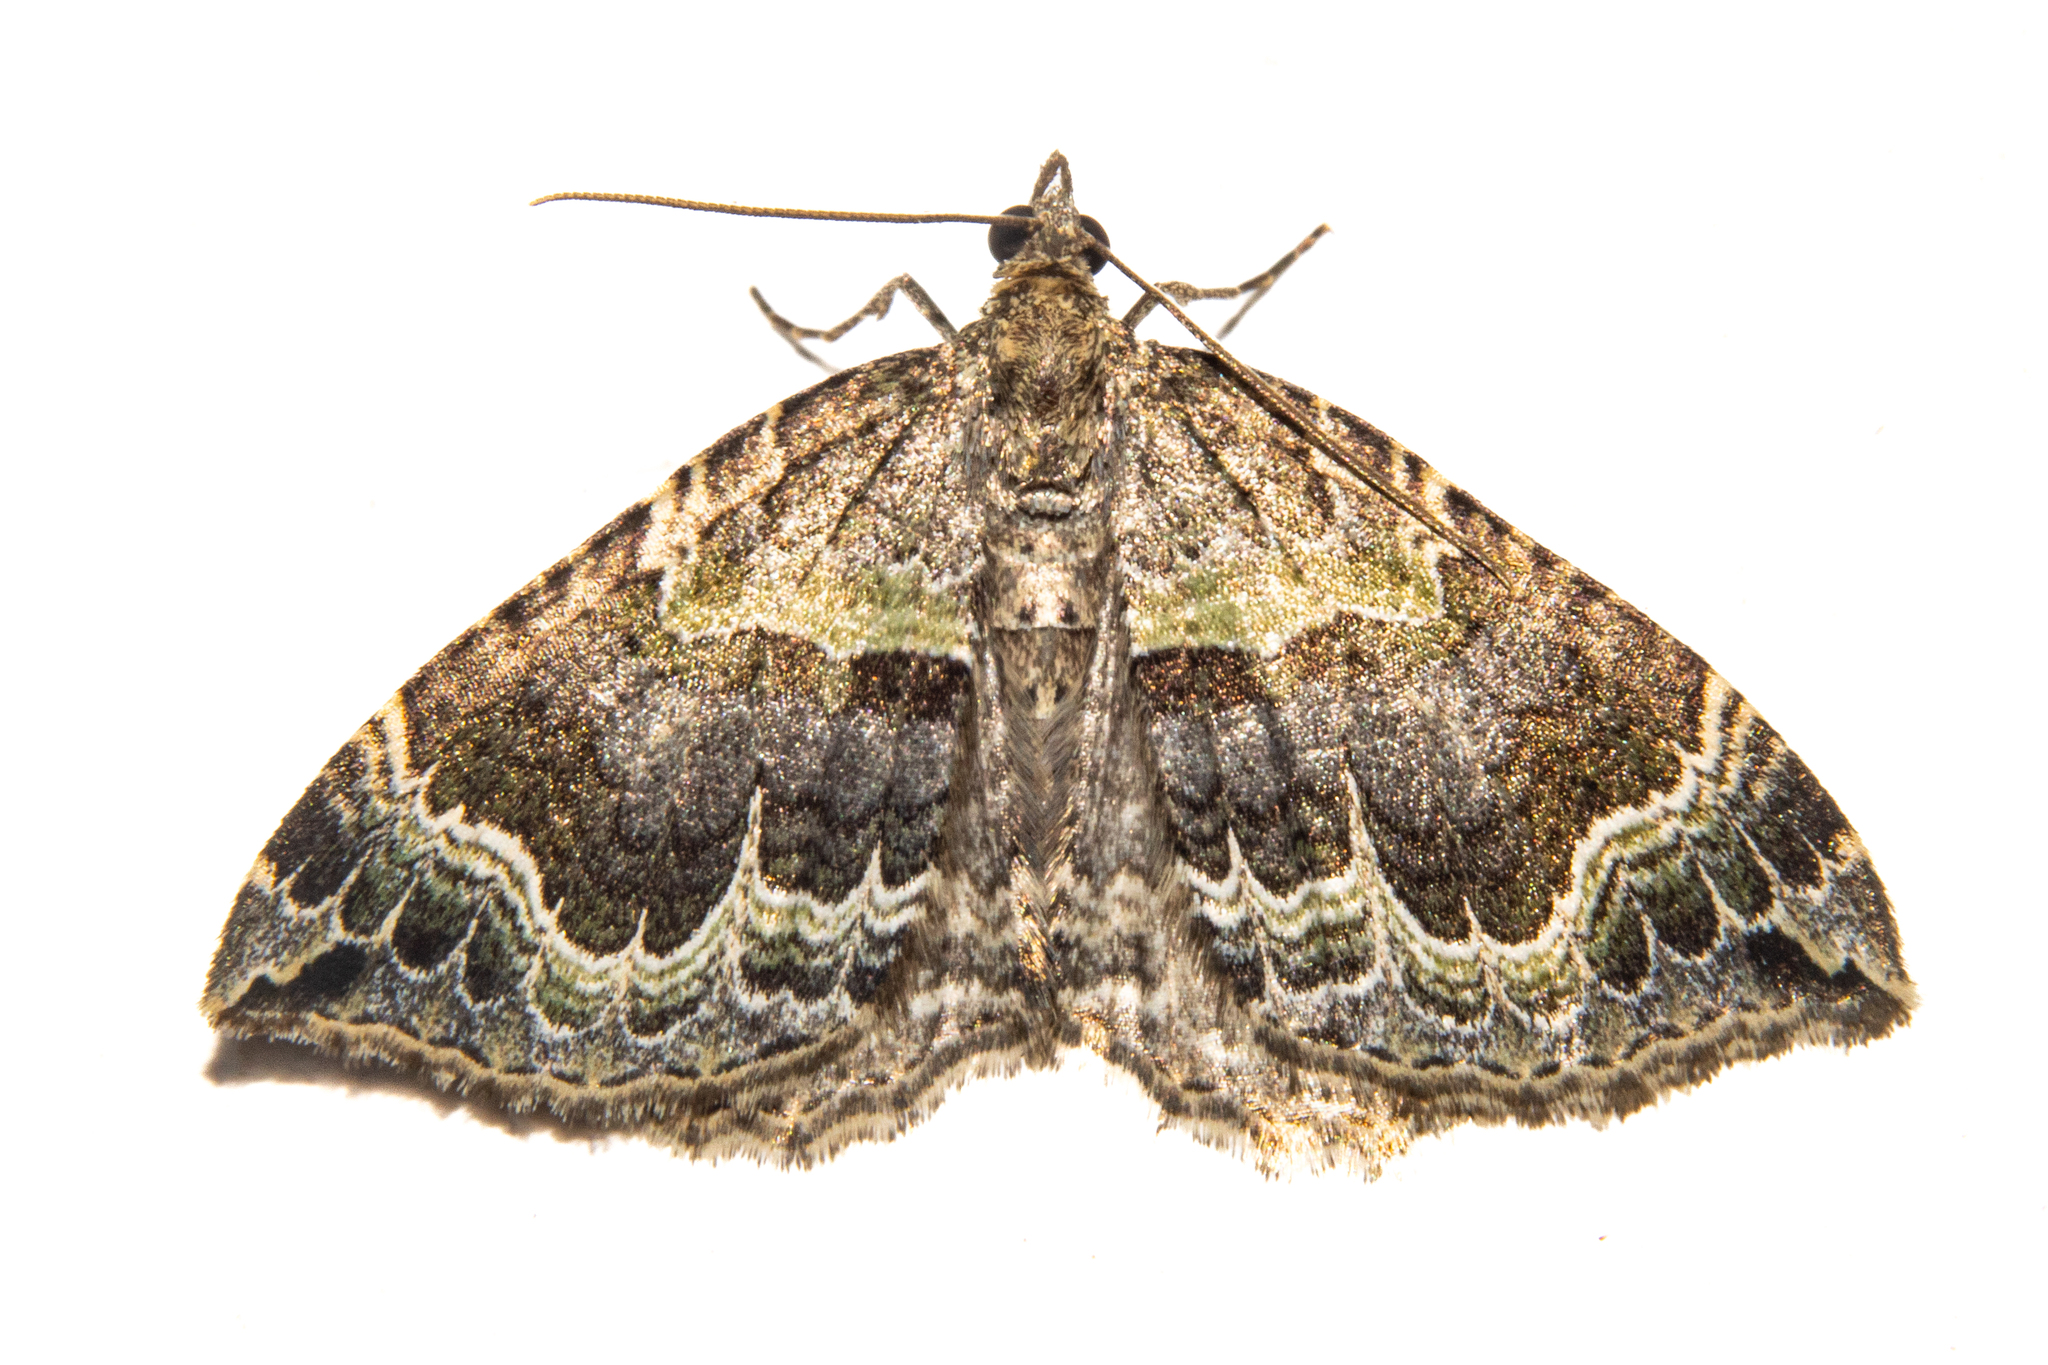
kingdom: Animalia
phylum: Arthropoda
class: Insecta
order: Lepidoptera
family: Geometridae
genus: Hydriomena
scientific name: Hydriomena rixata
